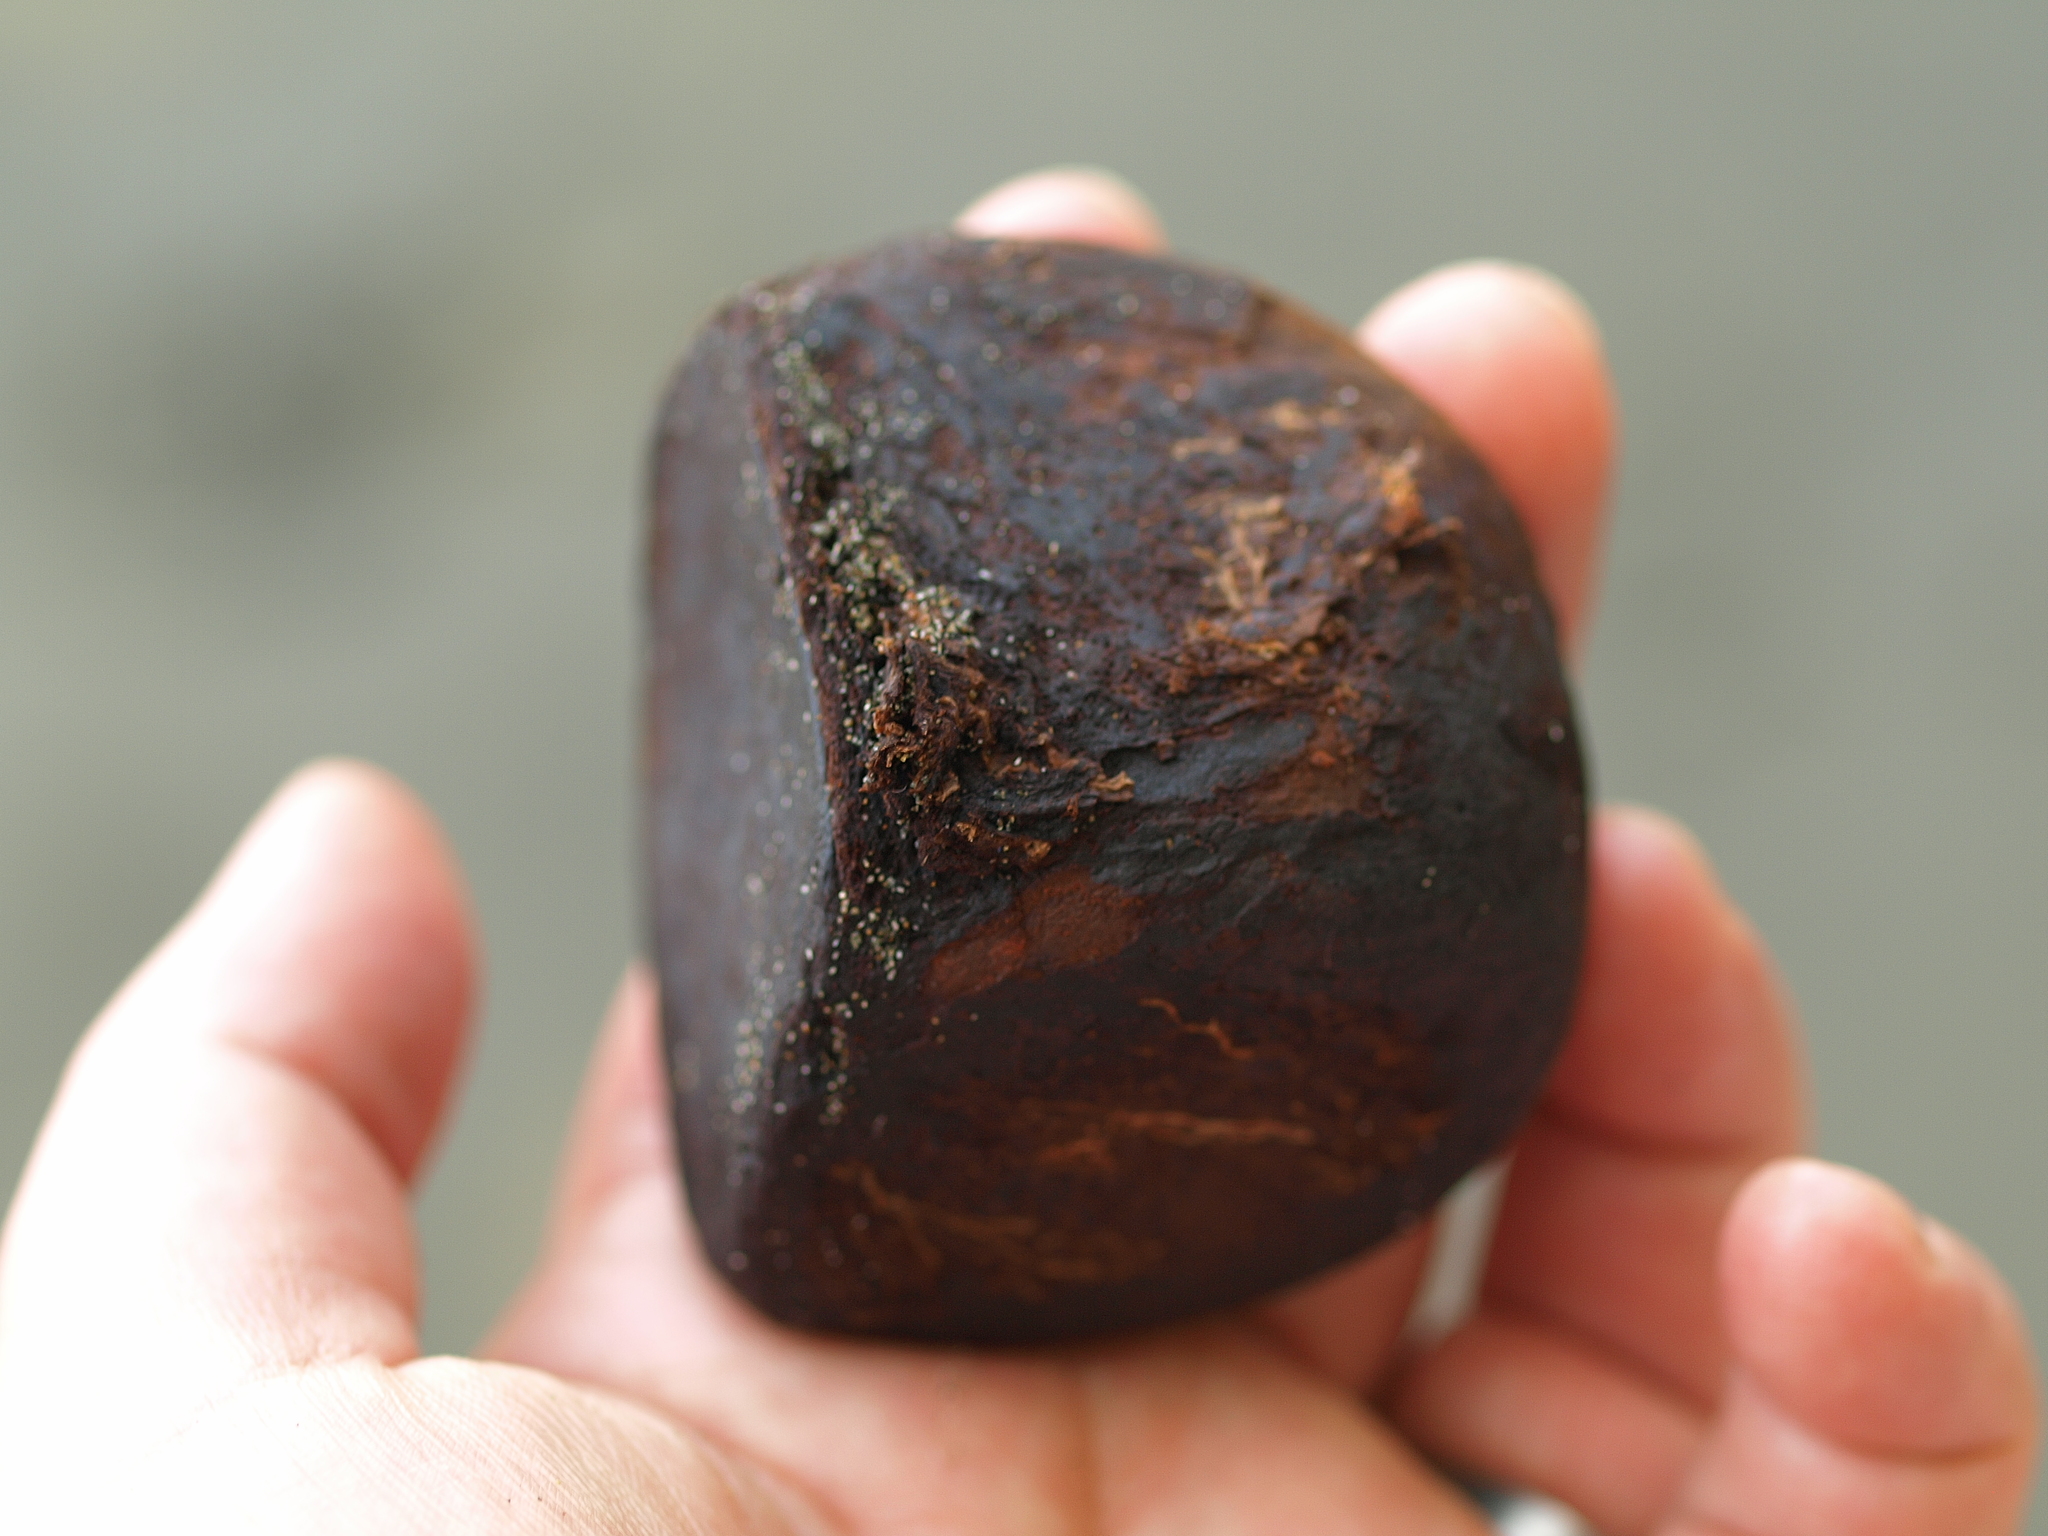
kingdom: Plantae
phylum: Tracheophyta
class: Magnoliopsida
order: Sapindales
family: Meliaceae
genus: Carapa
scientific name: Carapa guianensis
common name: Crabwood
